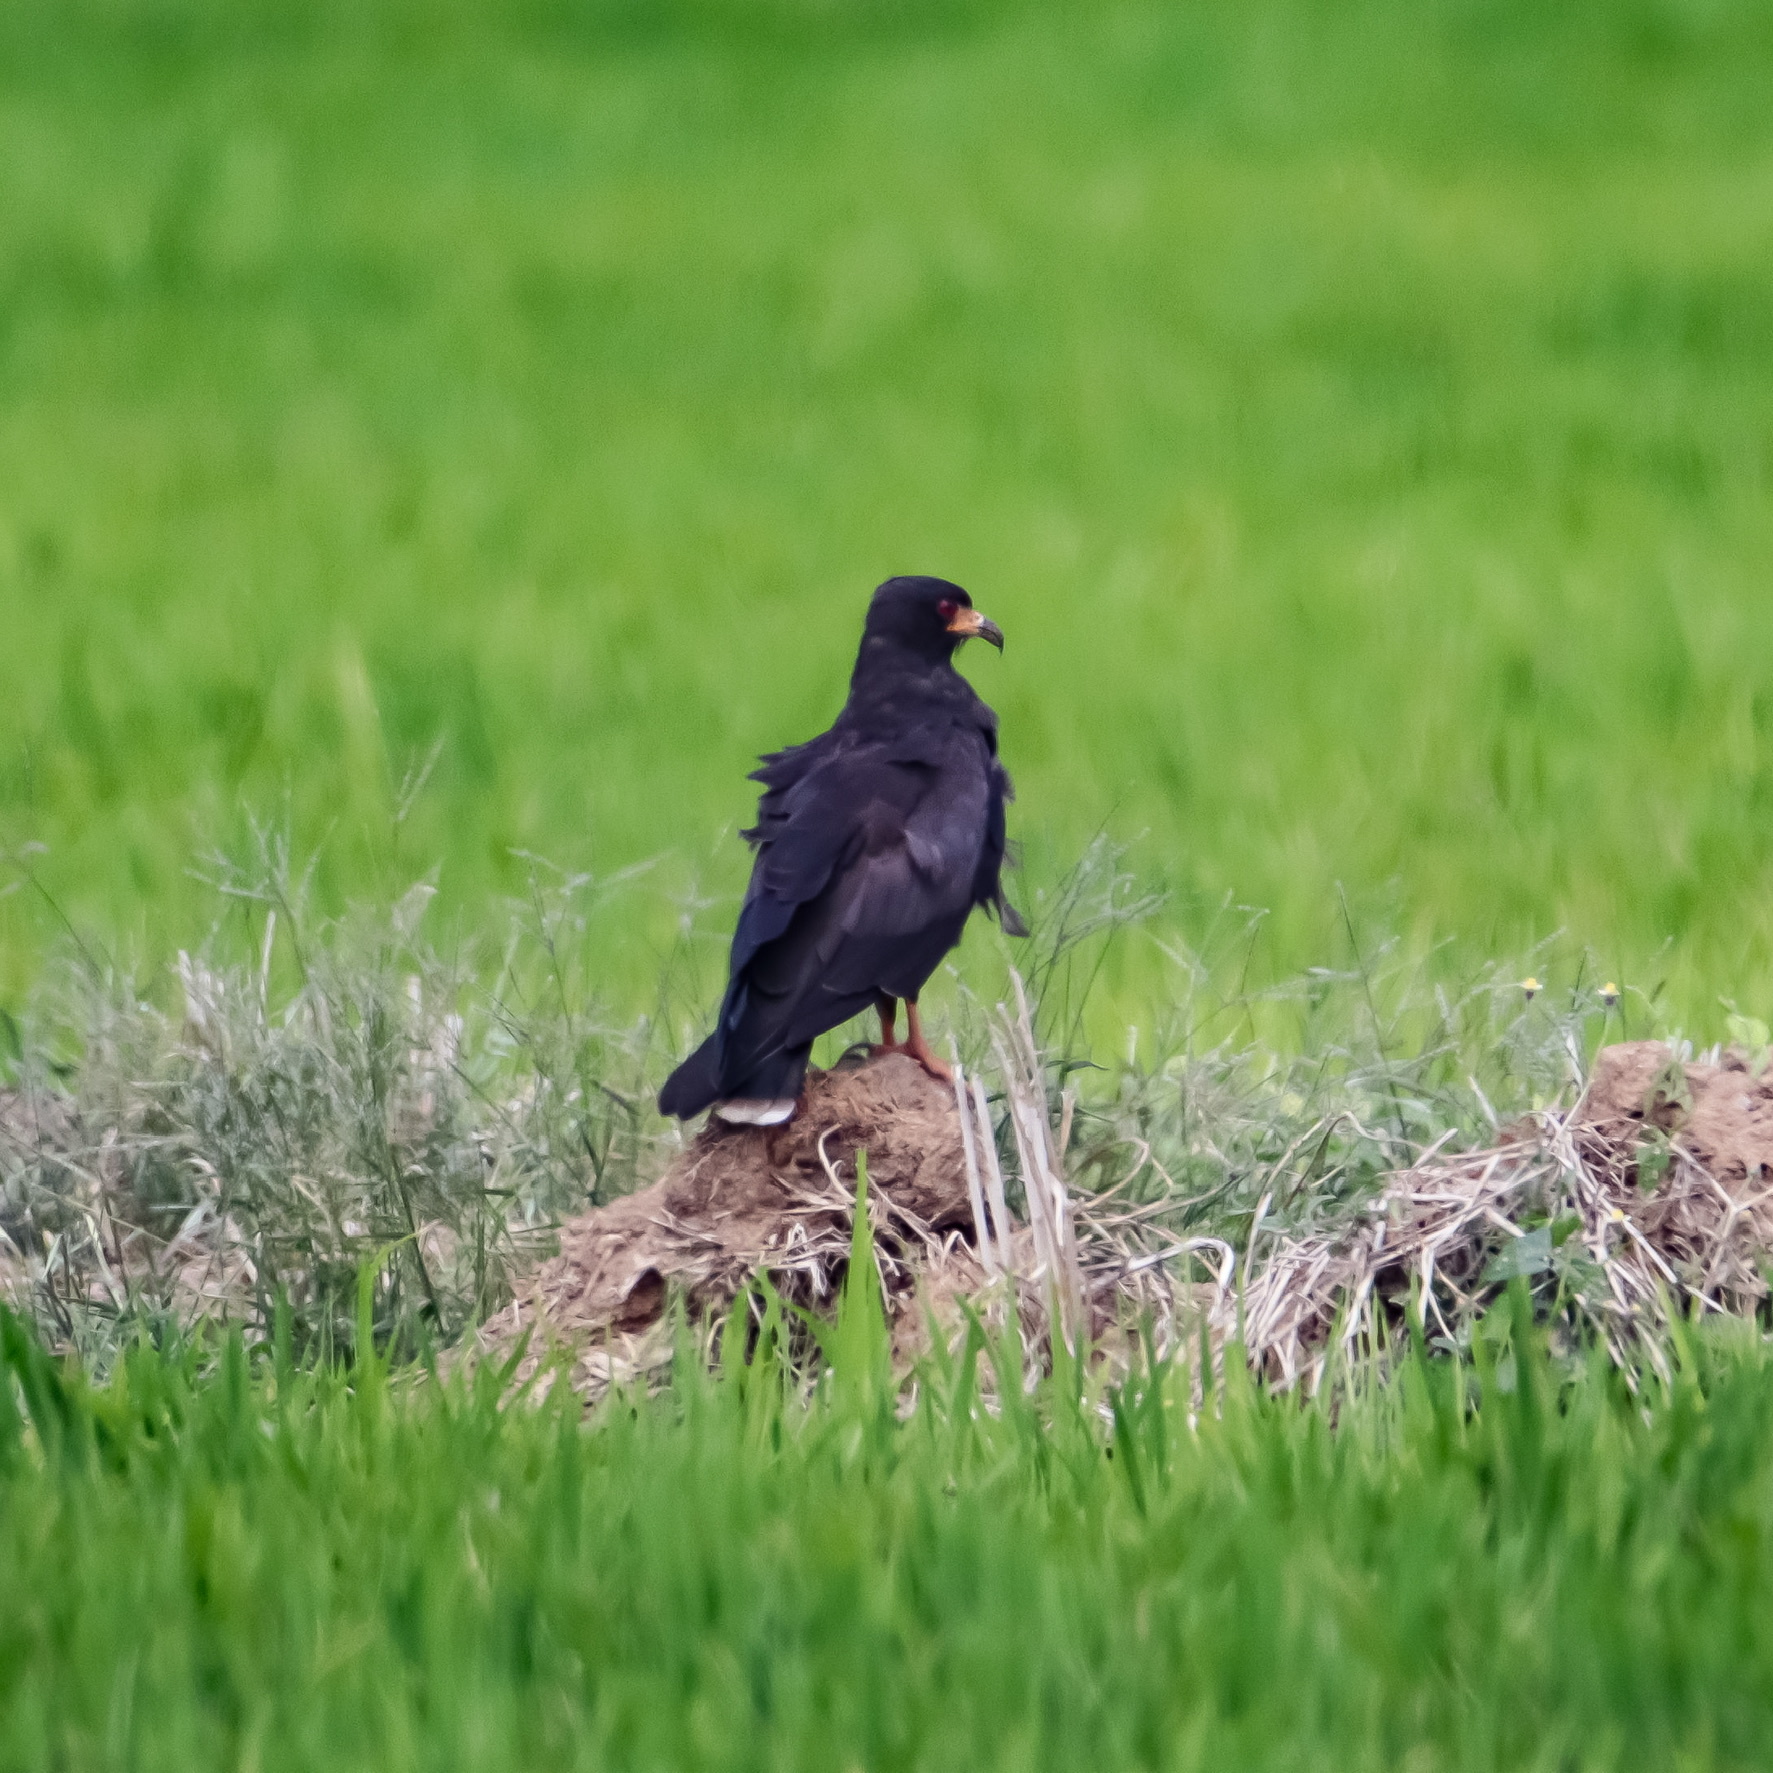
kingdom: Animalia
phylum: Chordata
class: Aves
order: Accipitriformes
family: Accipitridae
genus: Rostrhamus
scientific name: Rostrhamus sociabilis
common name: Snail kite
